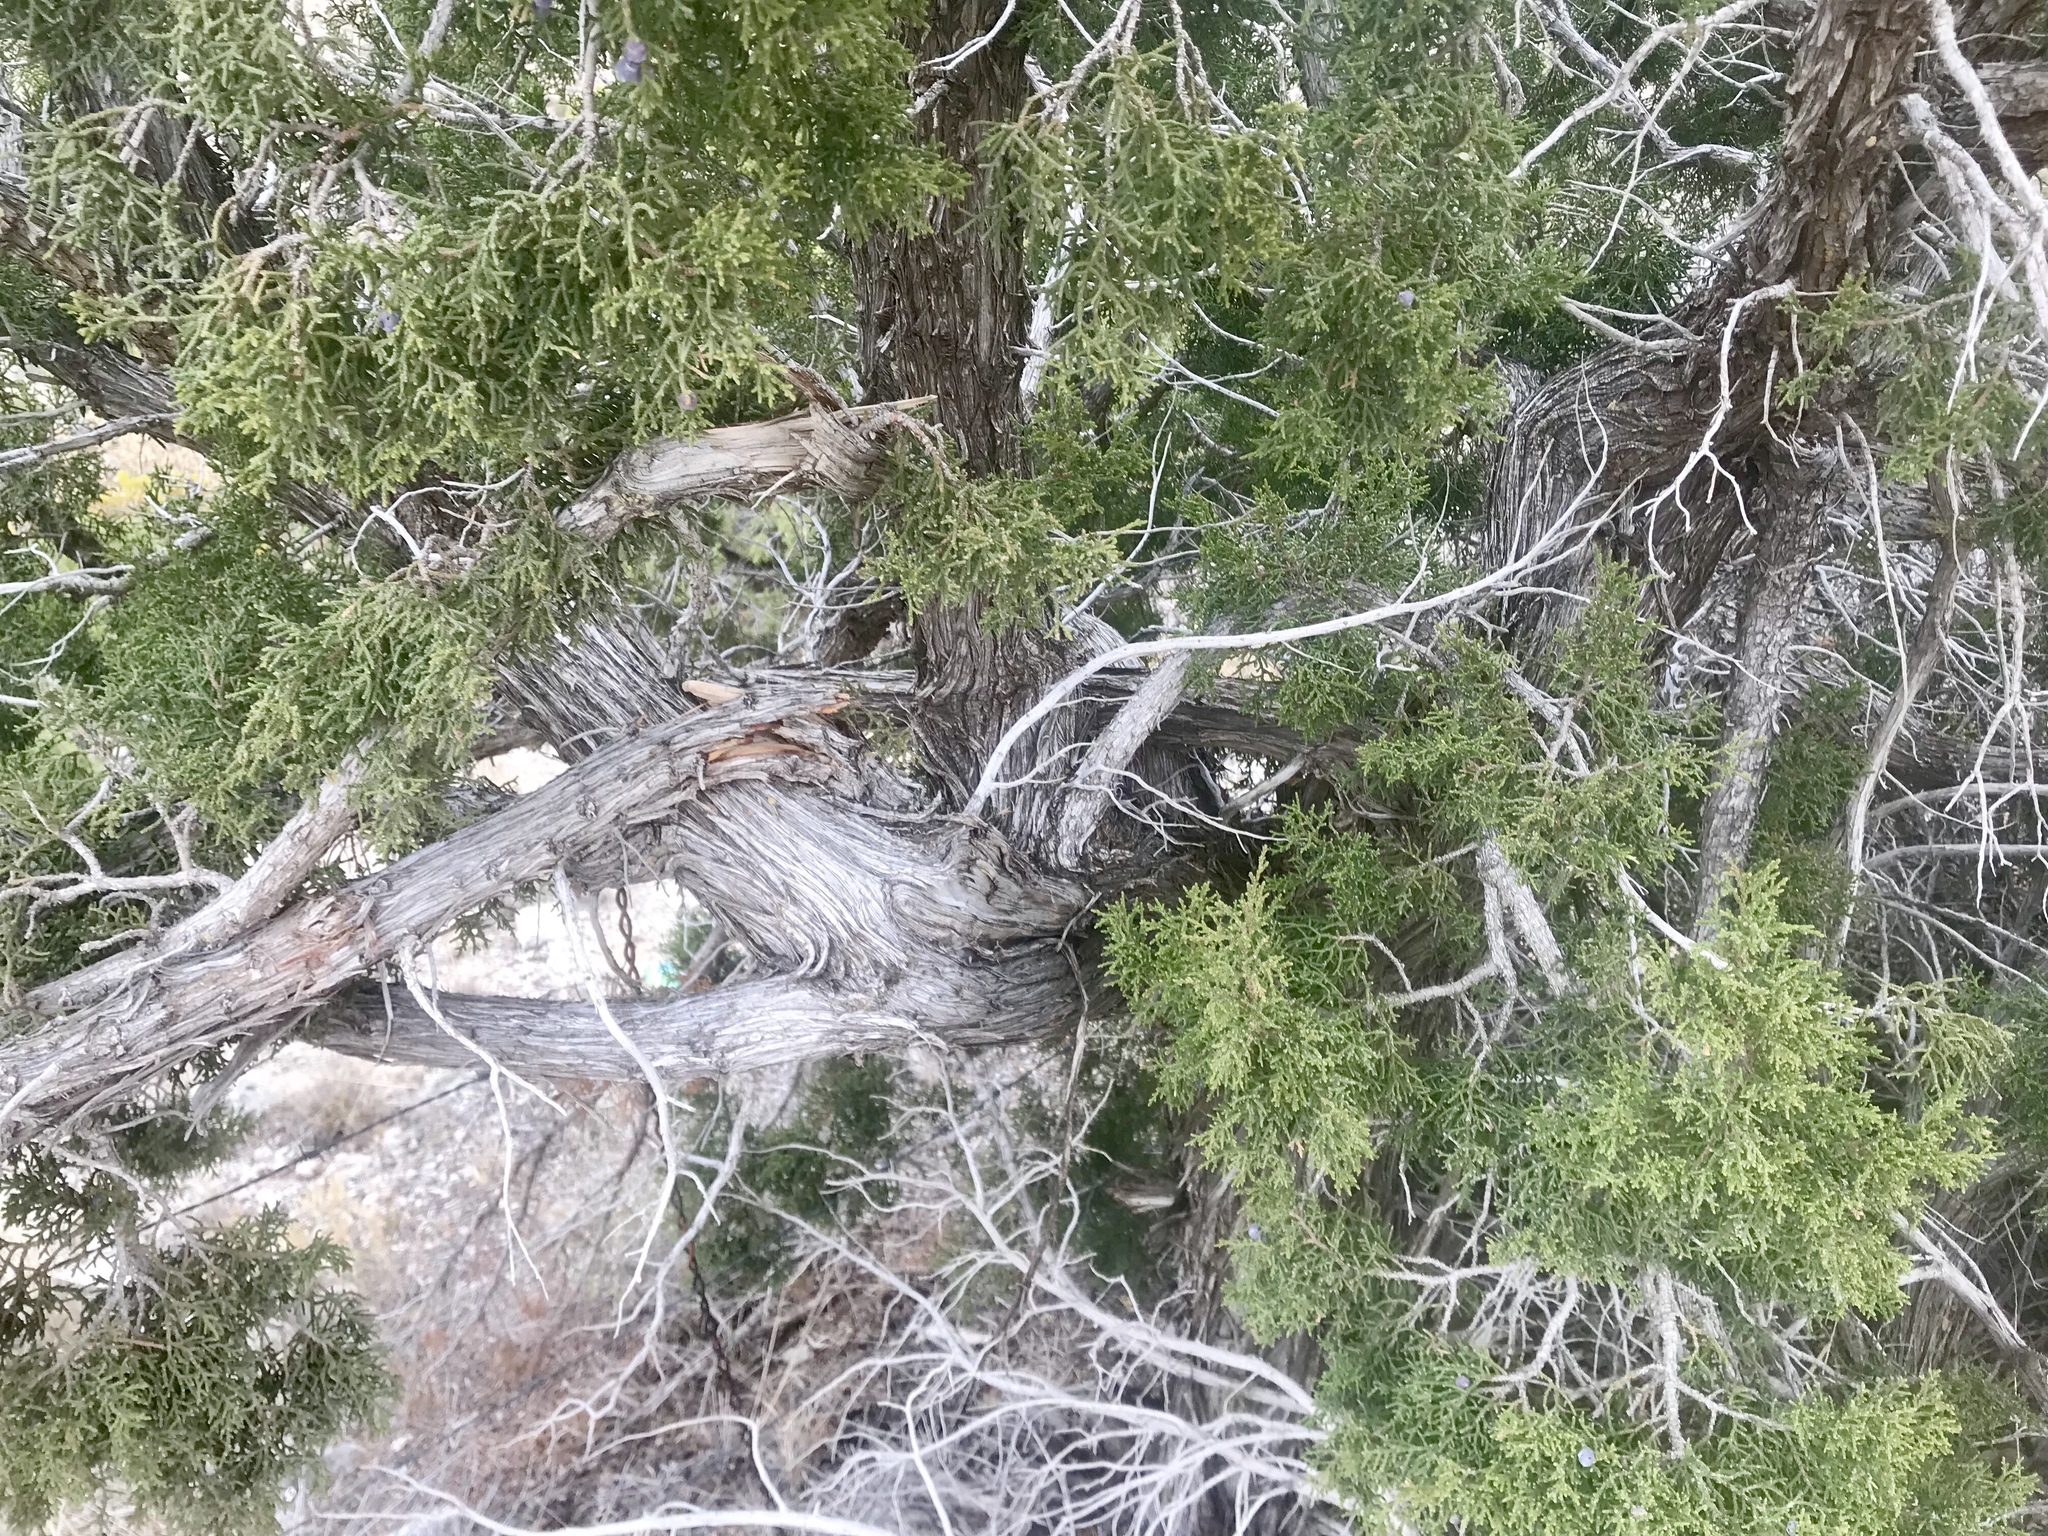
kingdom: Plantae
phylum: Tracheophyta
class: Pinopsida
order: Pinales
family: Cupressaceae
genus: Juniperus
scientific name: Juniperus monosperma
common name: One-seed juniper
